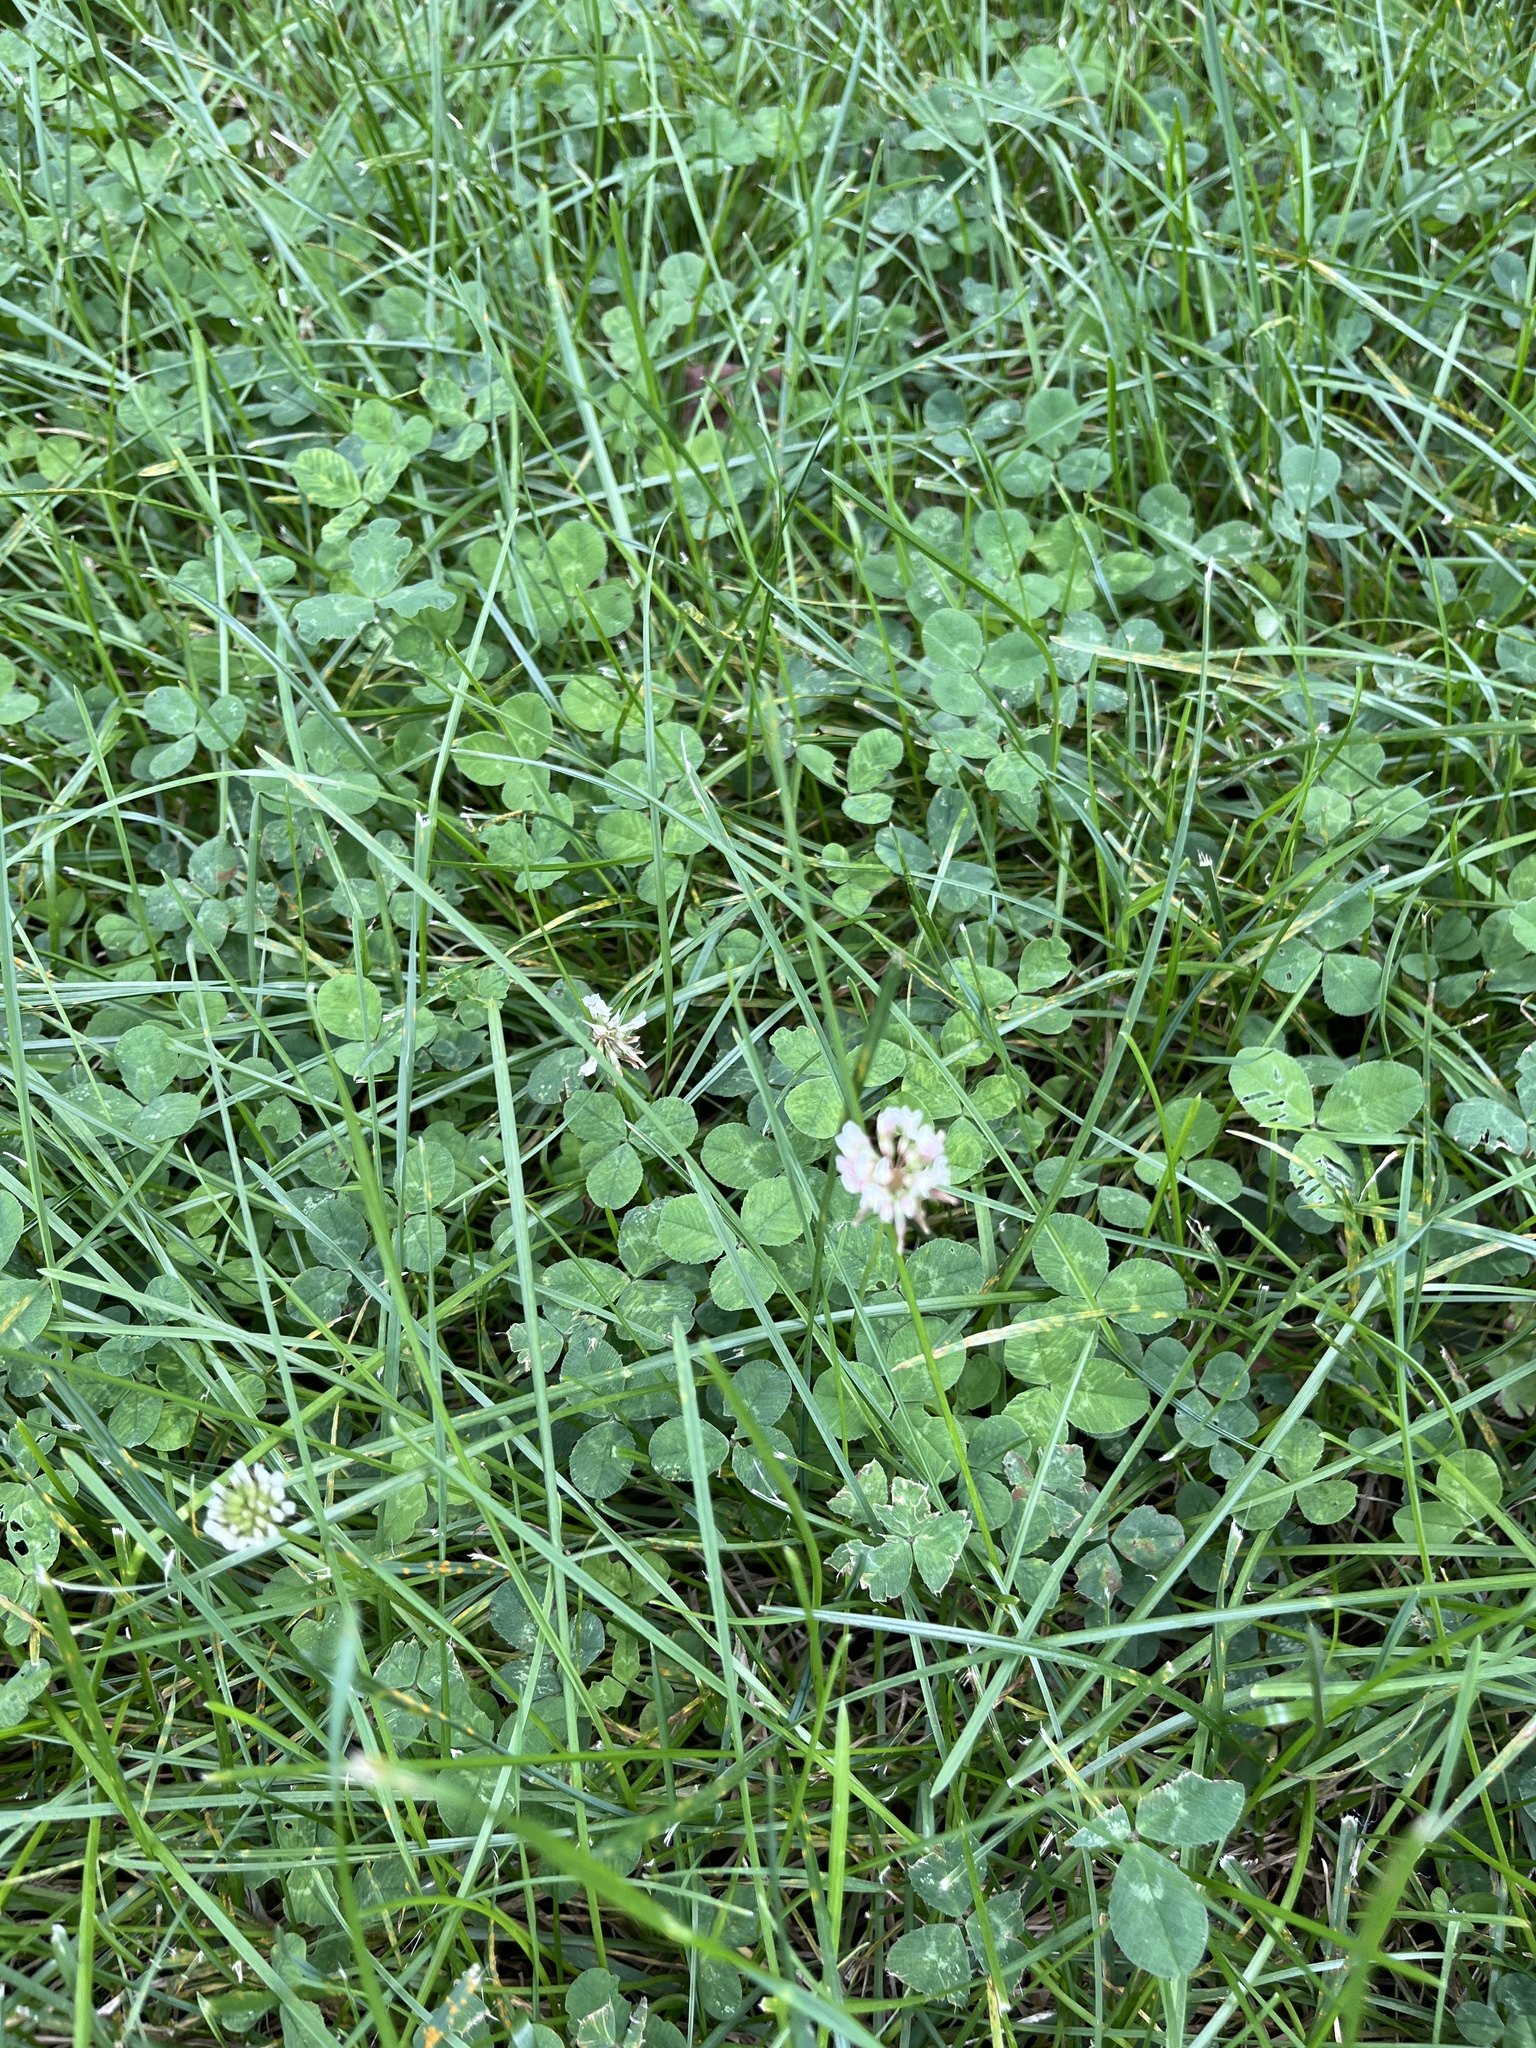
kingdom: Plantae
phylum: Tracheophyta
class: Magnoliopsida
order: Fabales
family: Fabaceae
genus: Trifolium
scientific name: Trifolium repens
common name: White clover
